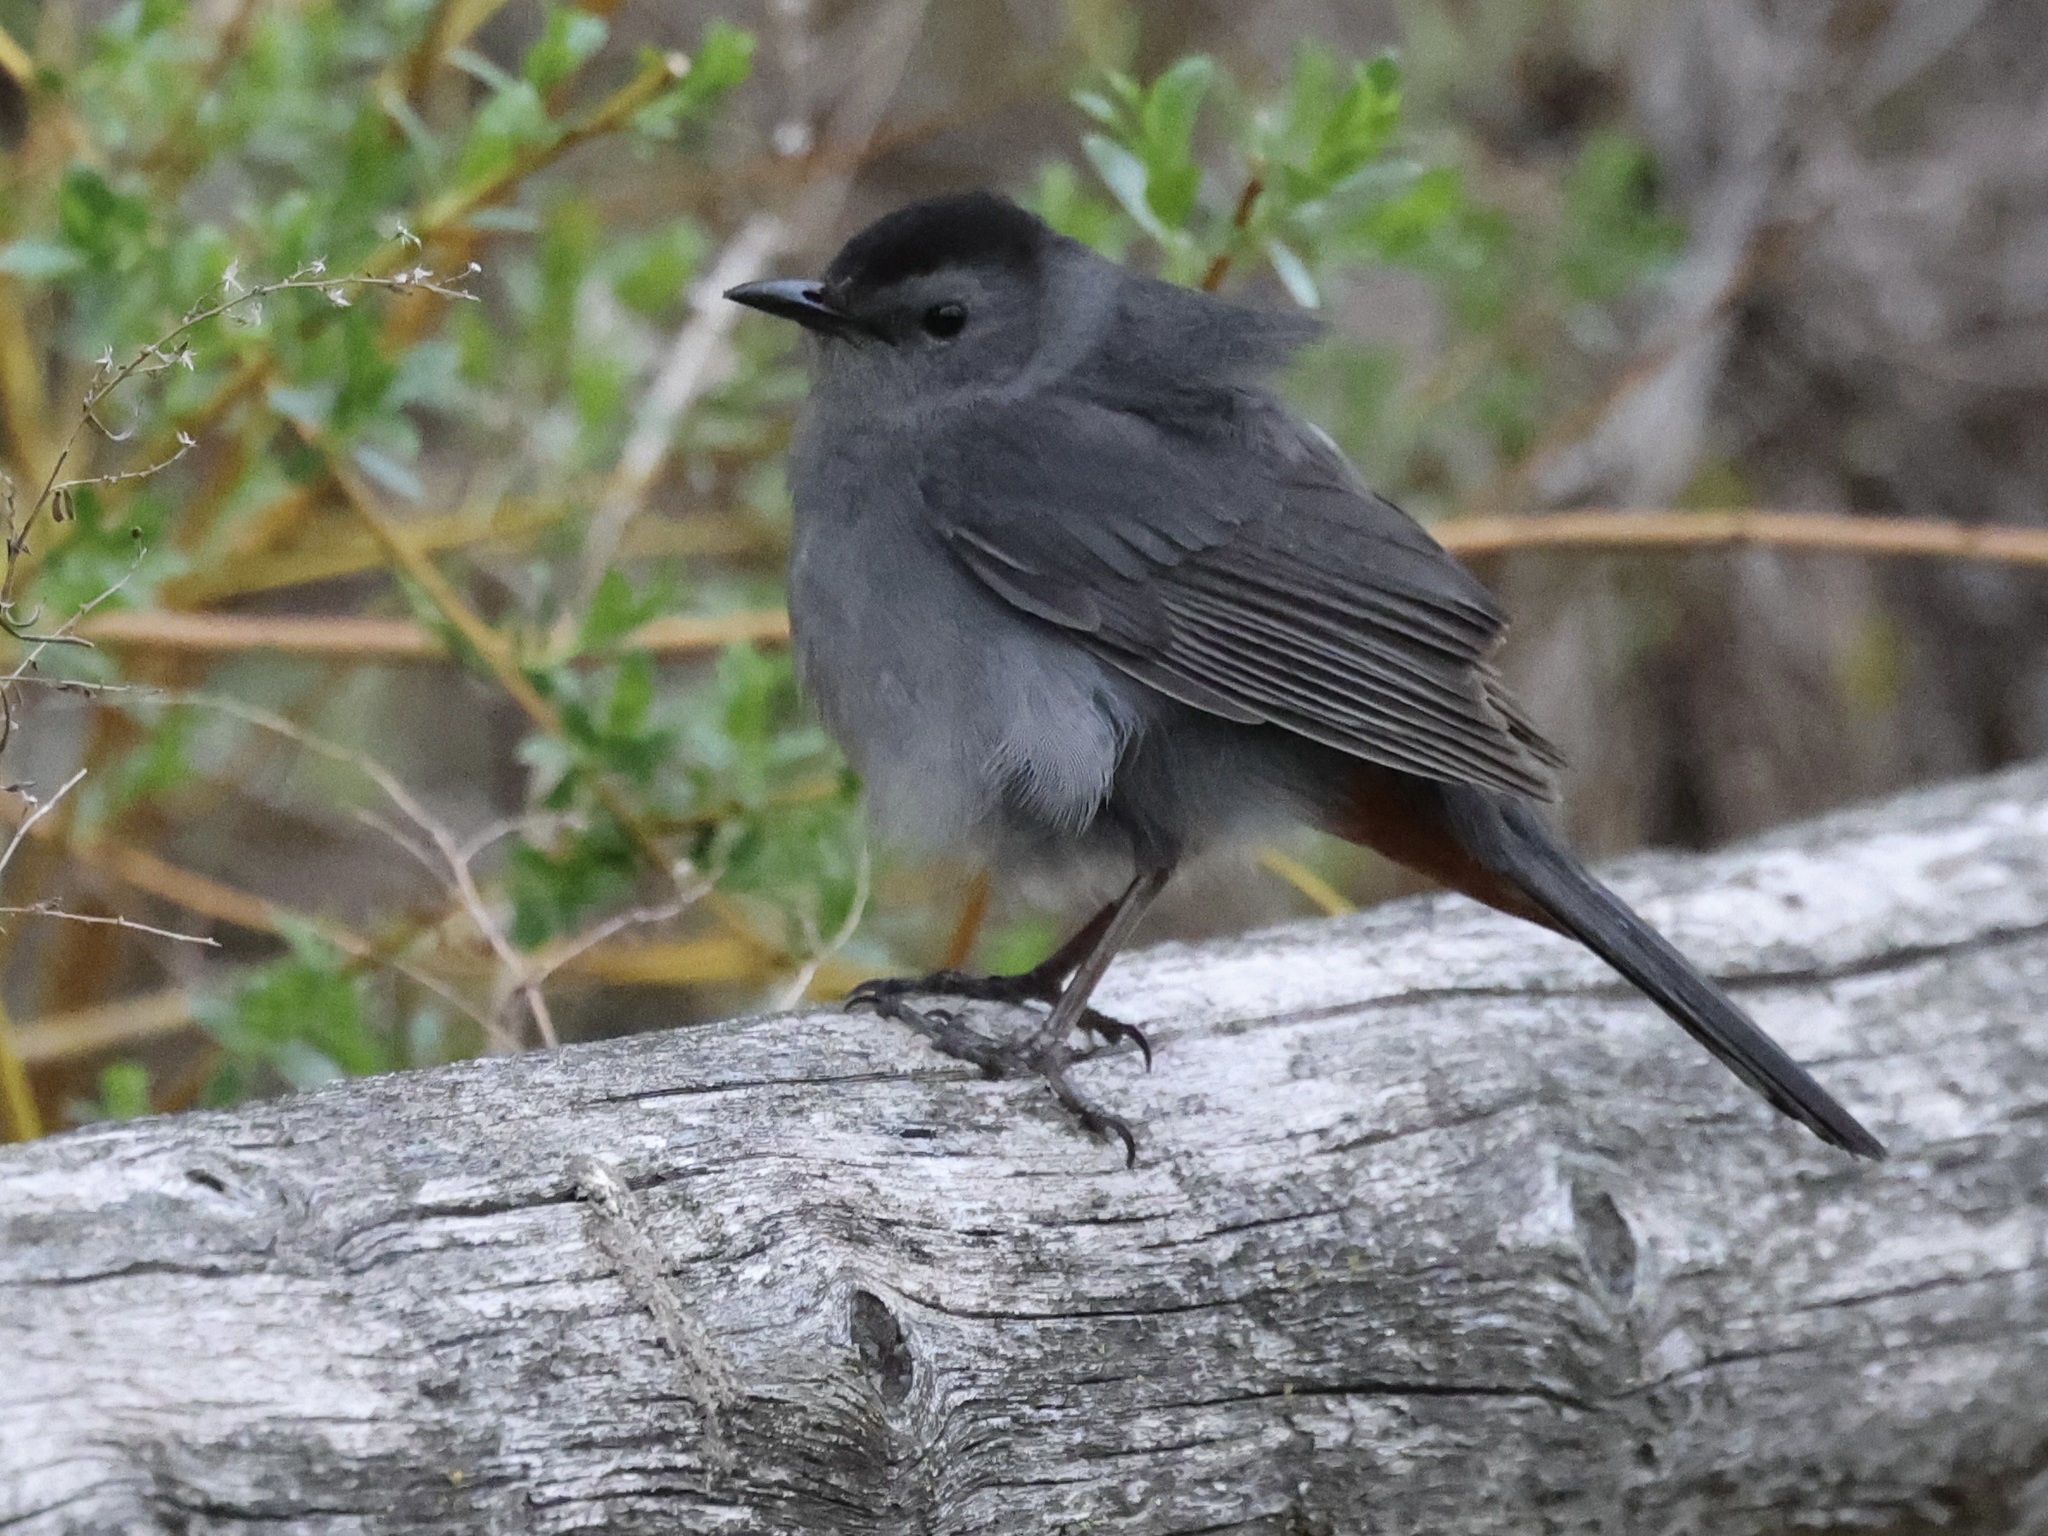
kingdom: Animalia
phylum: Chordata
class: Aves
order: Passeriformes
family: Mimidae
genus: Dumetella
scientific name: Dumetella carolinensis
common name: Gray catbird
